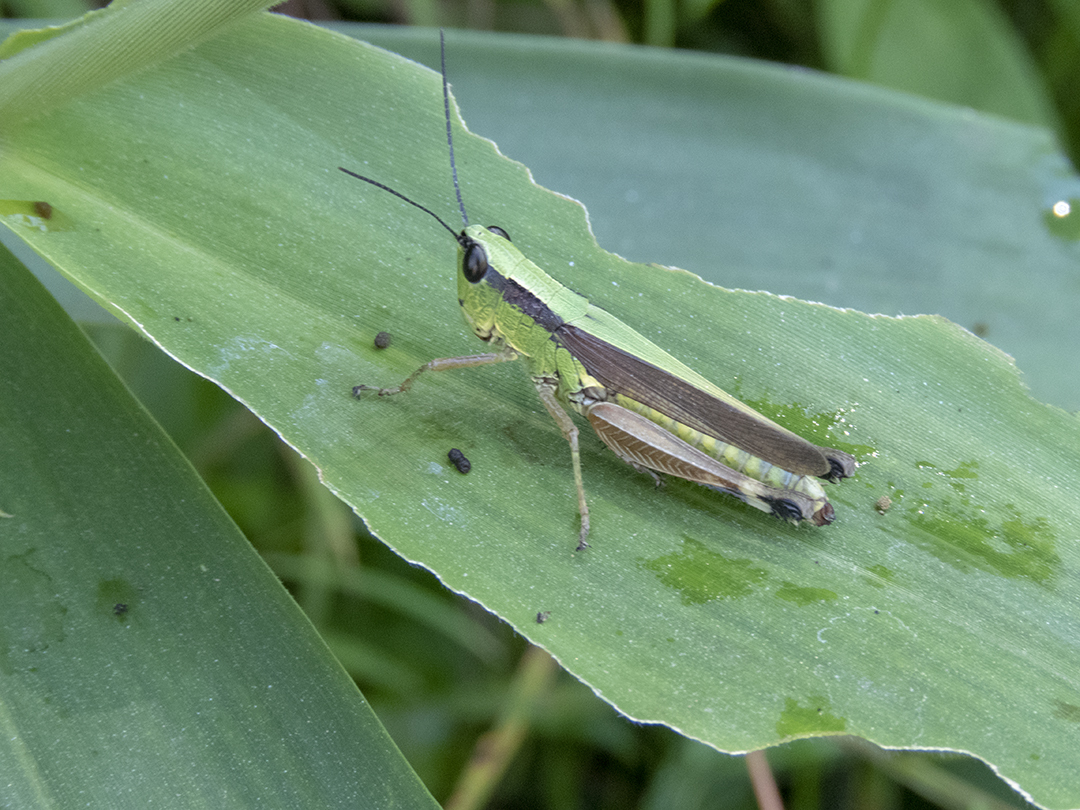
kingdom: Animalia
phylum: Arthropoda
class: Insecta
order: Orthoptera
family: Acrididae
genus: Ceracris
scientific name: Ceracris nigricornis
